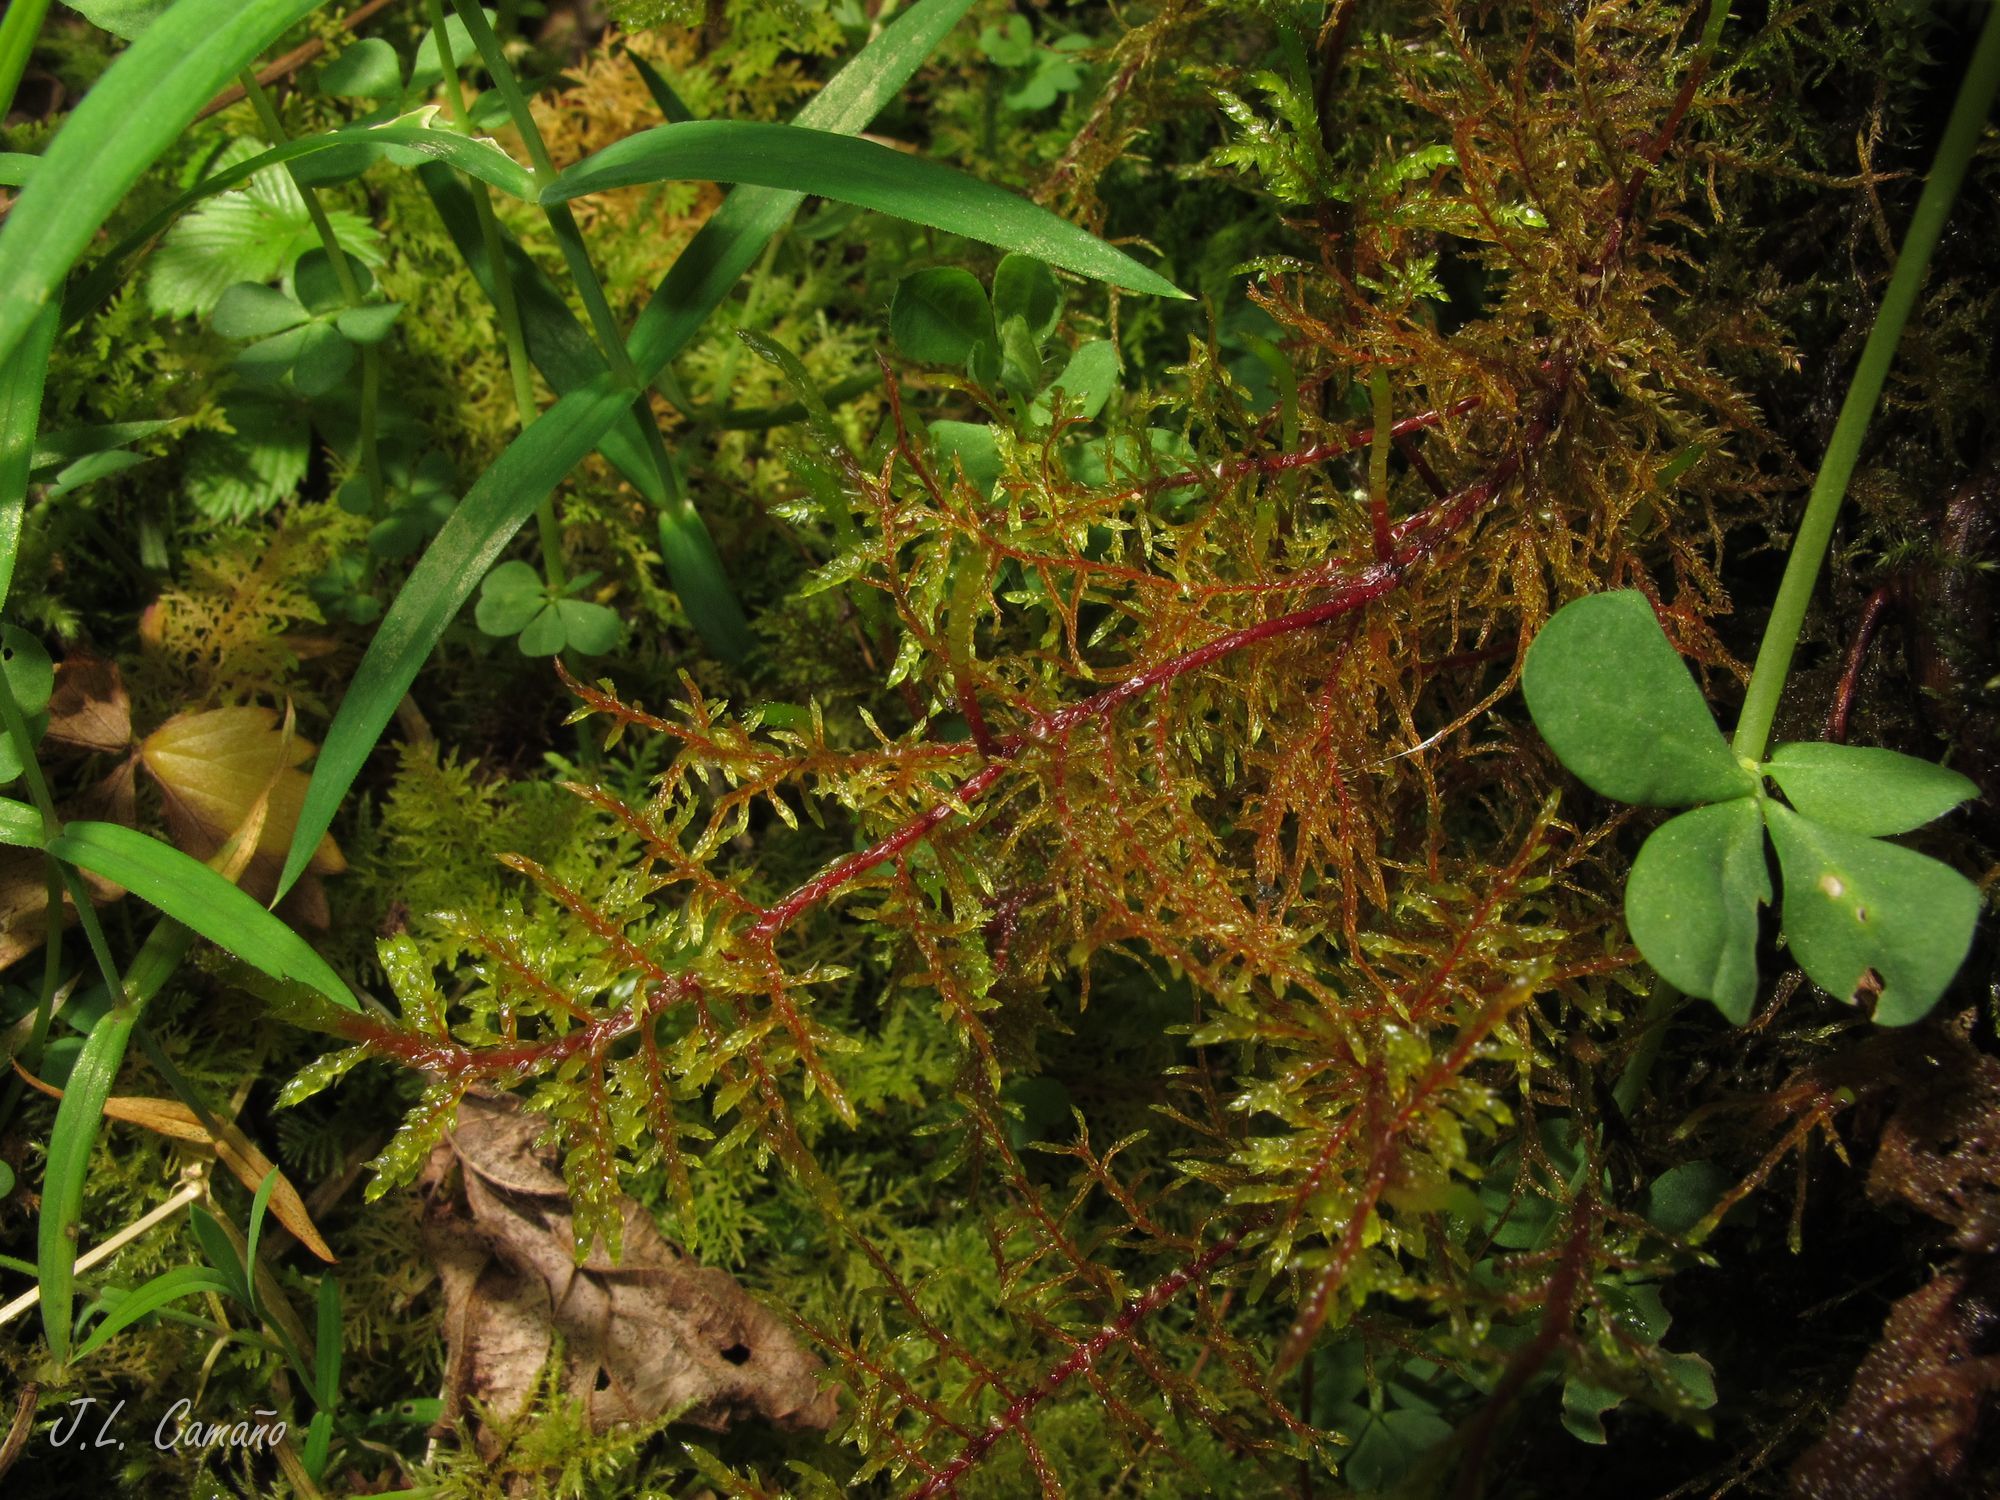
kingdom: Plantae
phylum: Bryophyta
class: Bryopsida
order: Hypnales
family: Hylocomiaceae
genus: Hylocomium
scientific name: Hylocomium splendens
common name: Stairstep moss
